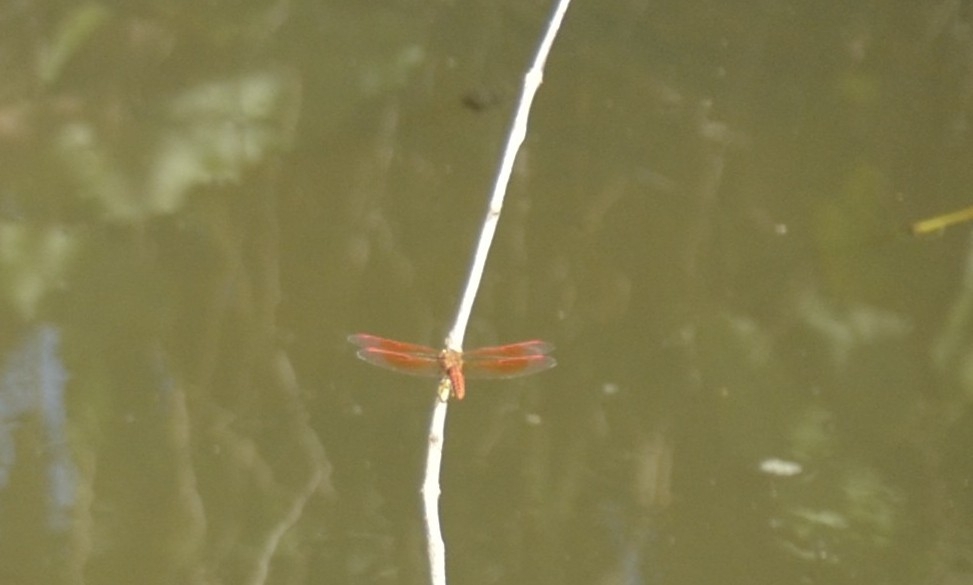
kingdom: Animalia
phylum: Arthropoda
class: Insecta
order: Odonata
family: Libellulidae
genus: Brachythemis
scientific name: Brachythemis contaminata
